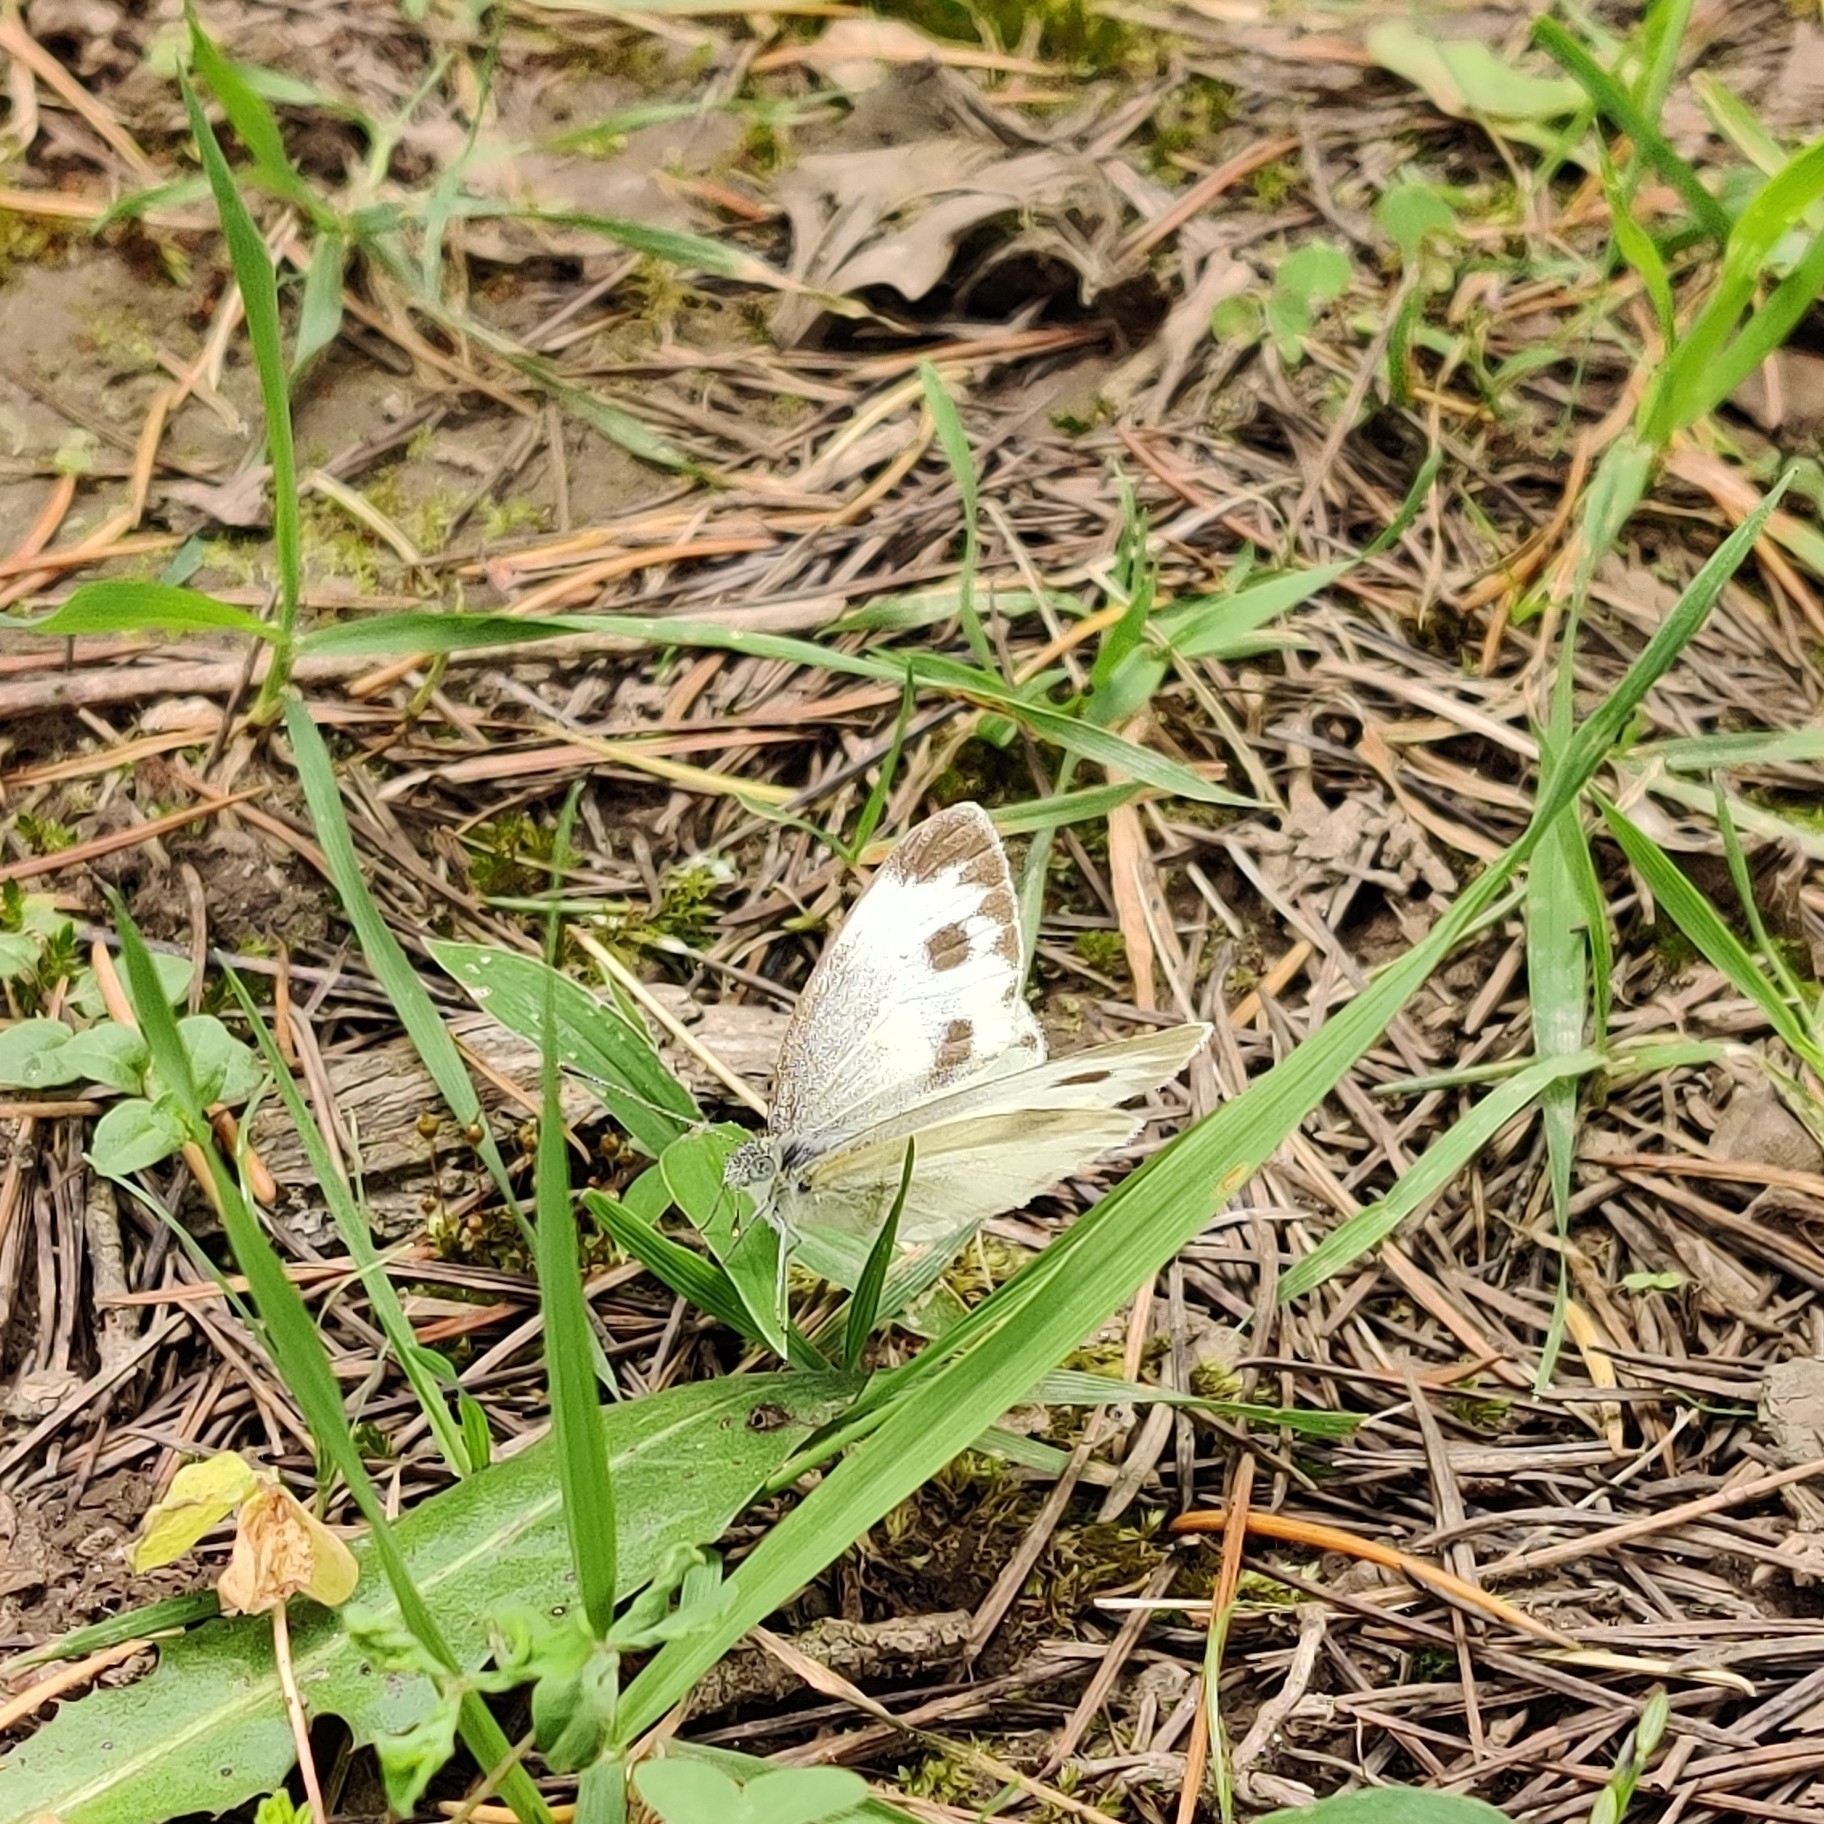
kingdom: Animalia
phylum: Arthropoda
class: Insecta
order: Lepidoptera
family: Pieridae
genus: Pieris
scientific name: Pieris canidia
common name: Indian cabbage white
